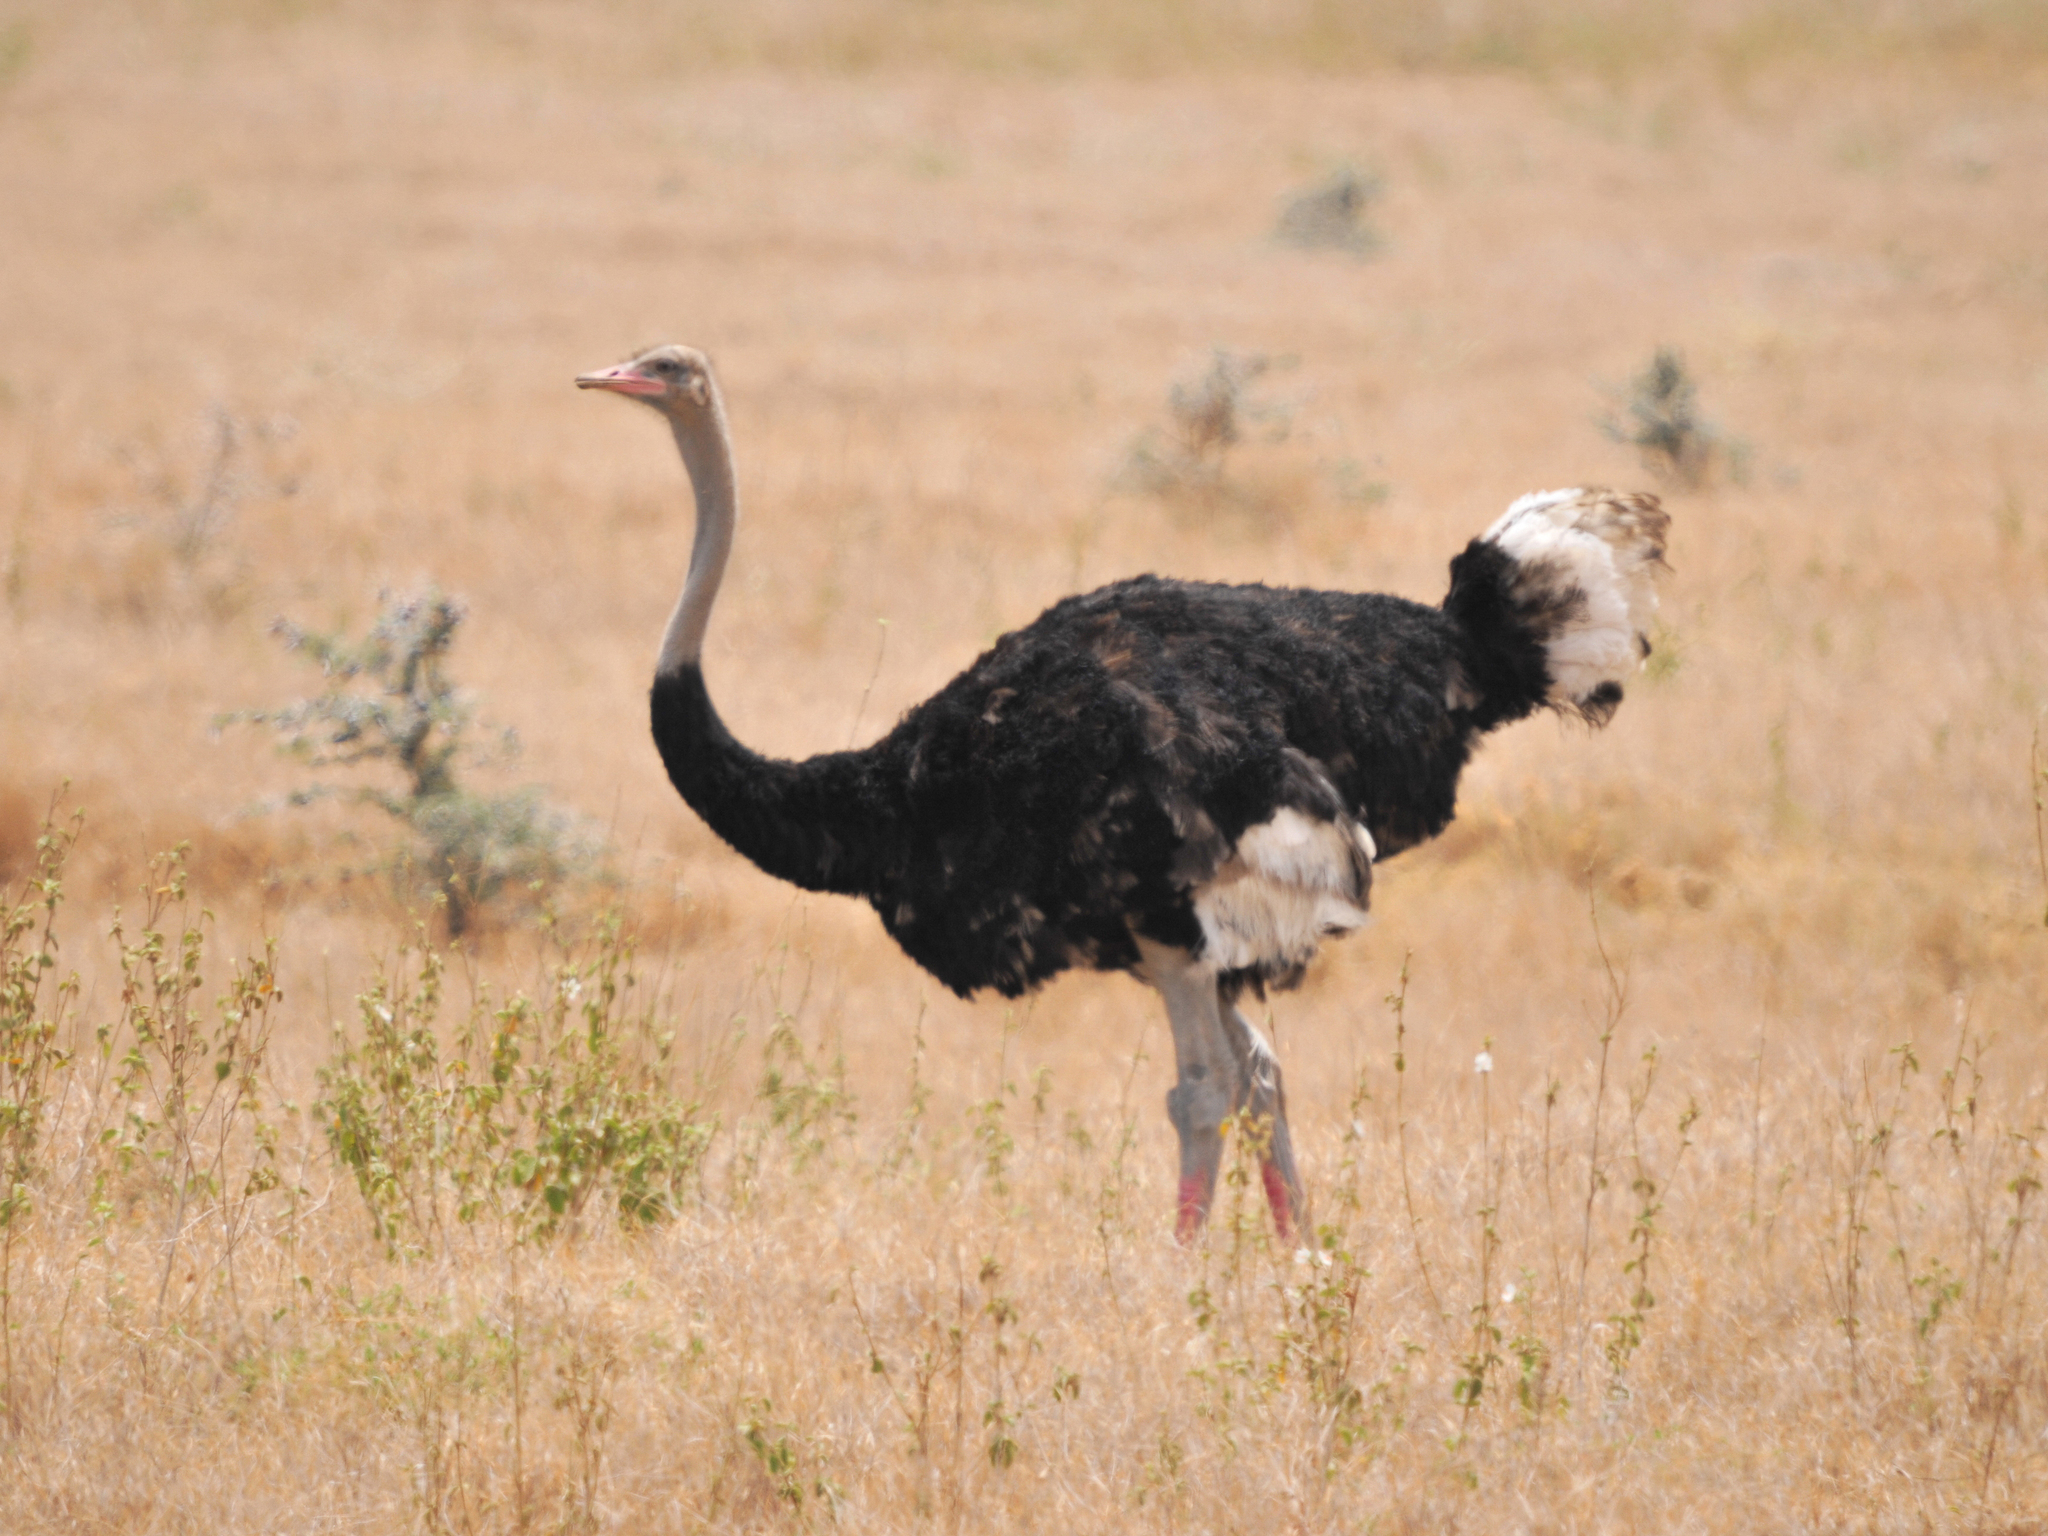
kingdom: Animalia
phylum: Chordata
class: Aves
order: Struthioniformes
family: Struthionidae
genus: Struthio
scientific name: Struthio molybdophanes
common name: Somali ostrich
